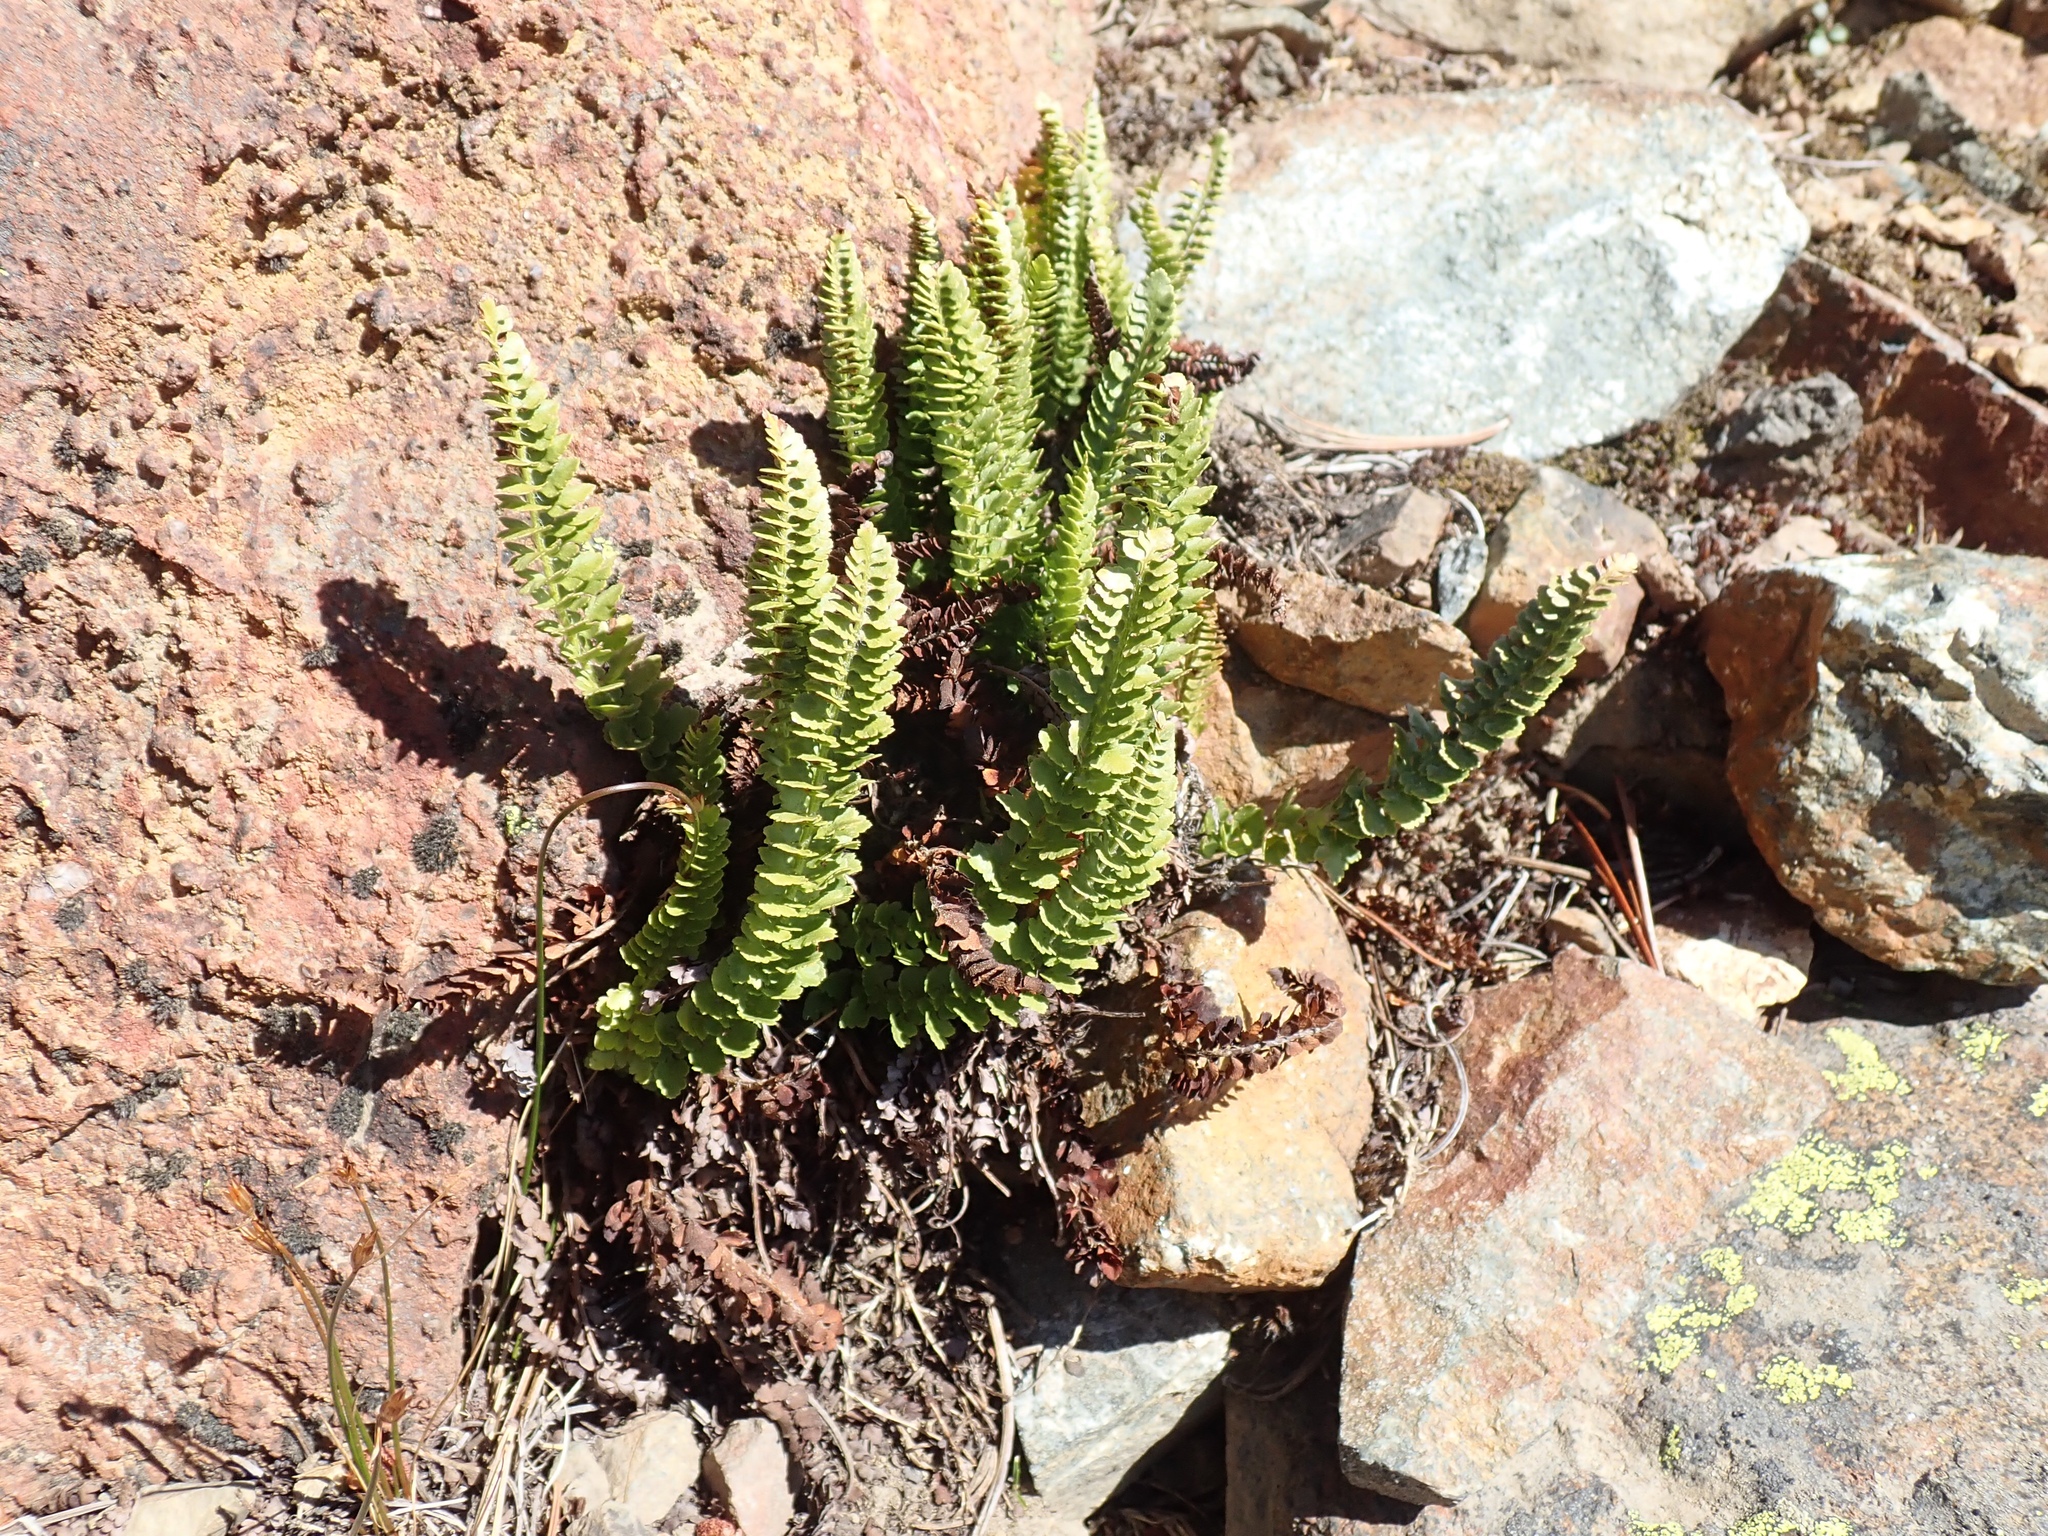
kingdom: Plantae
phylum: Tracheophyta
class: Polypodiopsida
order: Polypodiales
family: Dryopteridaceae
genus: Polystichum
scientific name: Polystichum lemmonii
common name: Lemmon's holly fern
